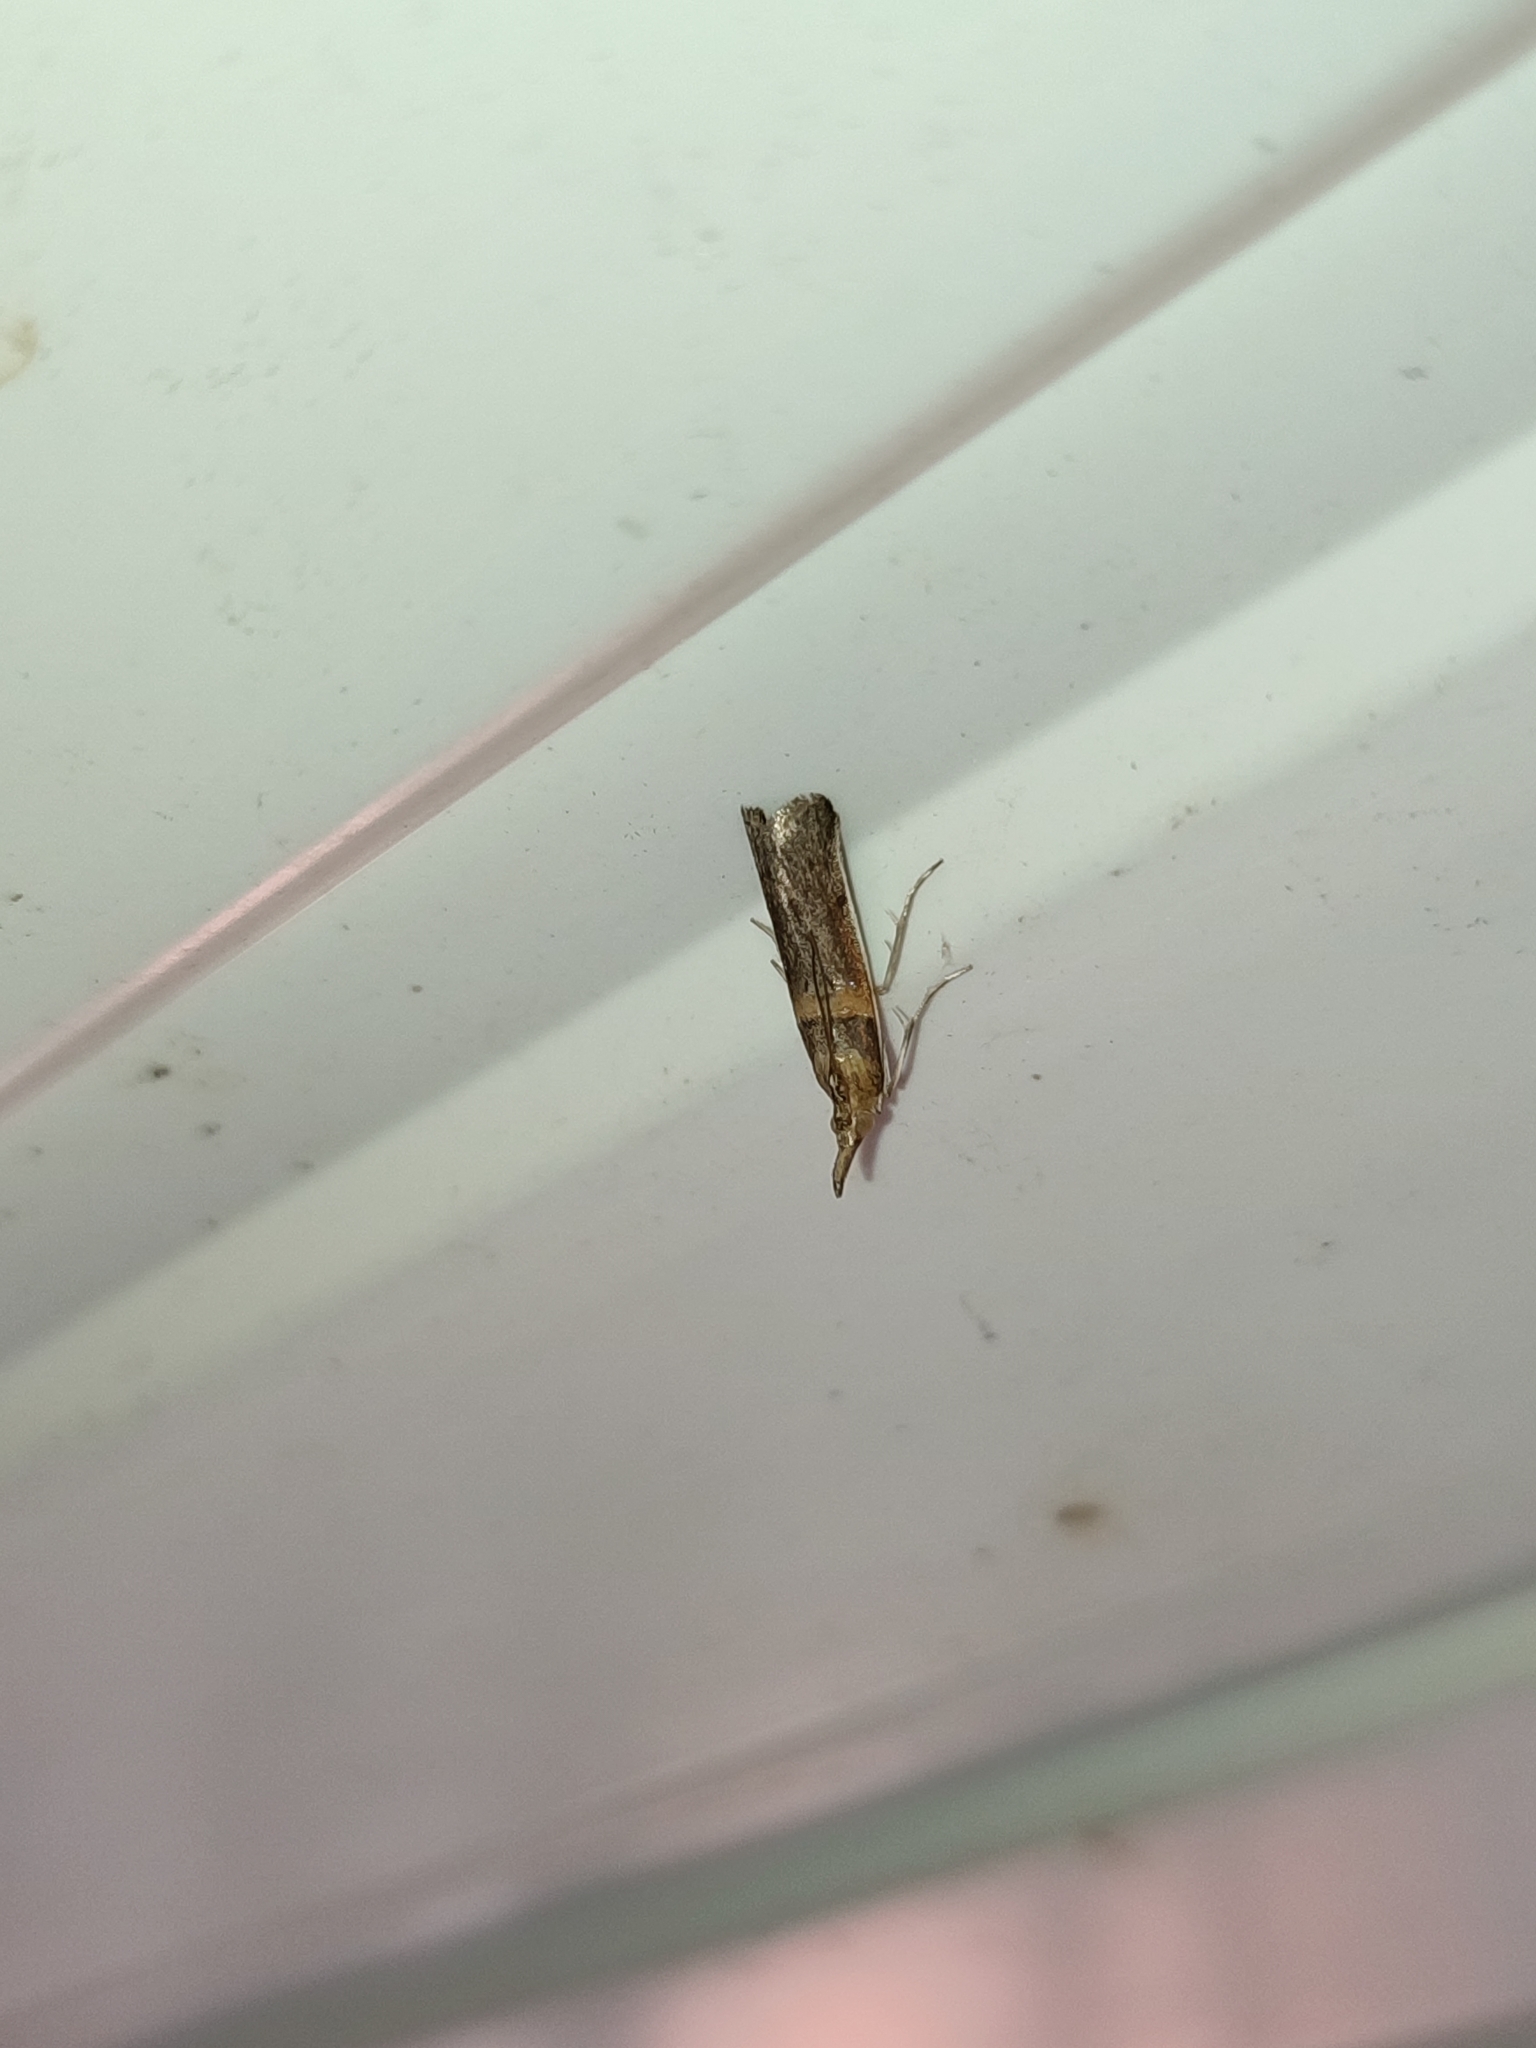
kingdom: Animalia
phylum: Arthropoda
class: Insecta
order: Lepidoptera
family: Pyralidae
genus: Etiella
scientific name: Etiella zinckenella
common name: Gold-banded etiella moth
